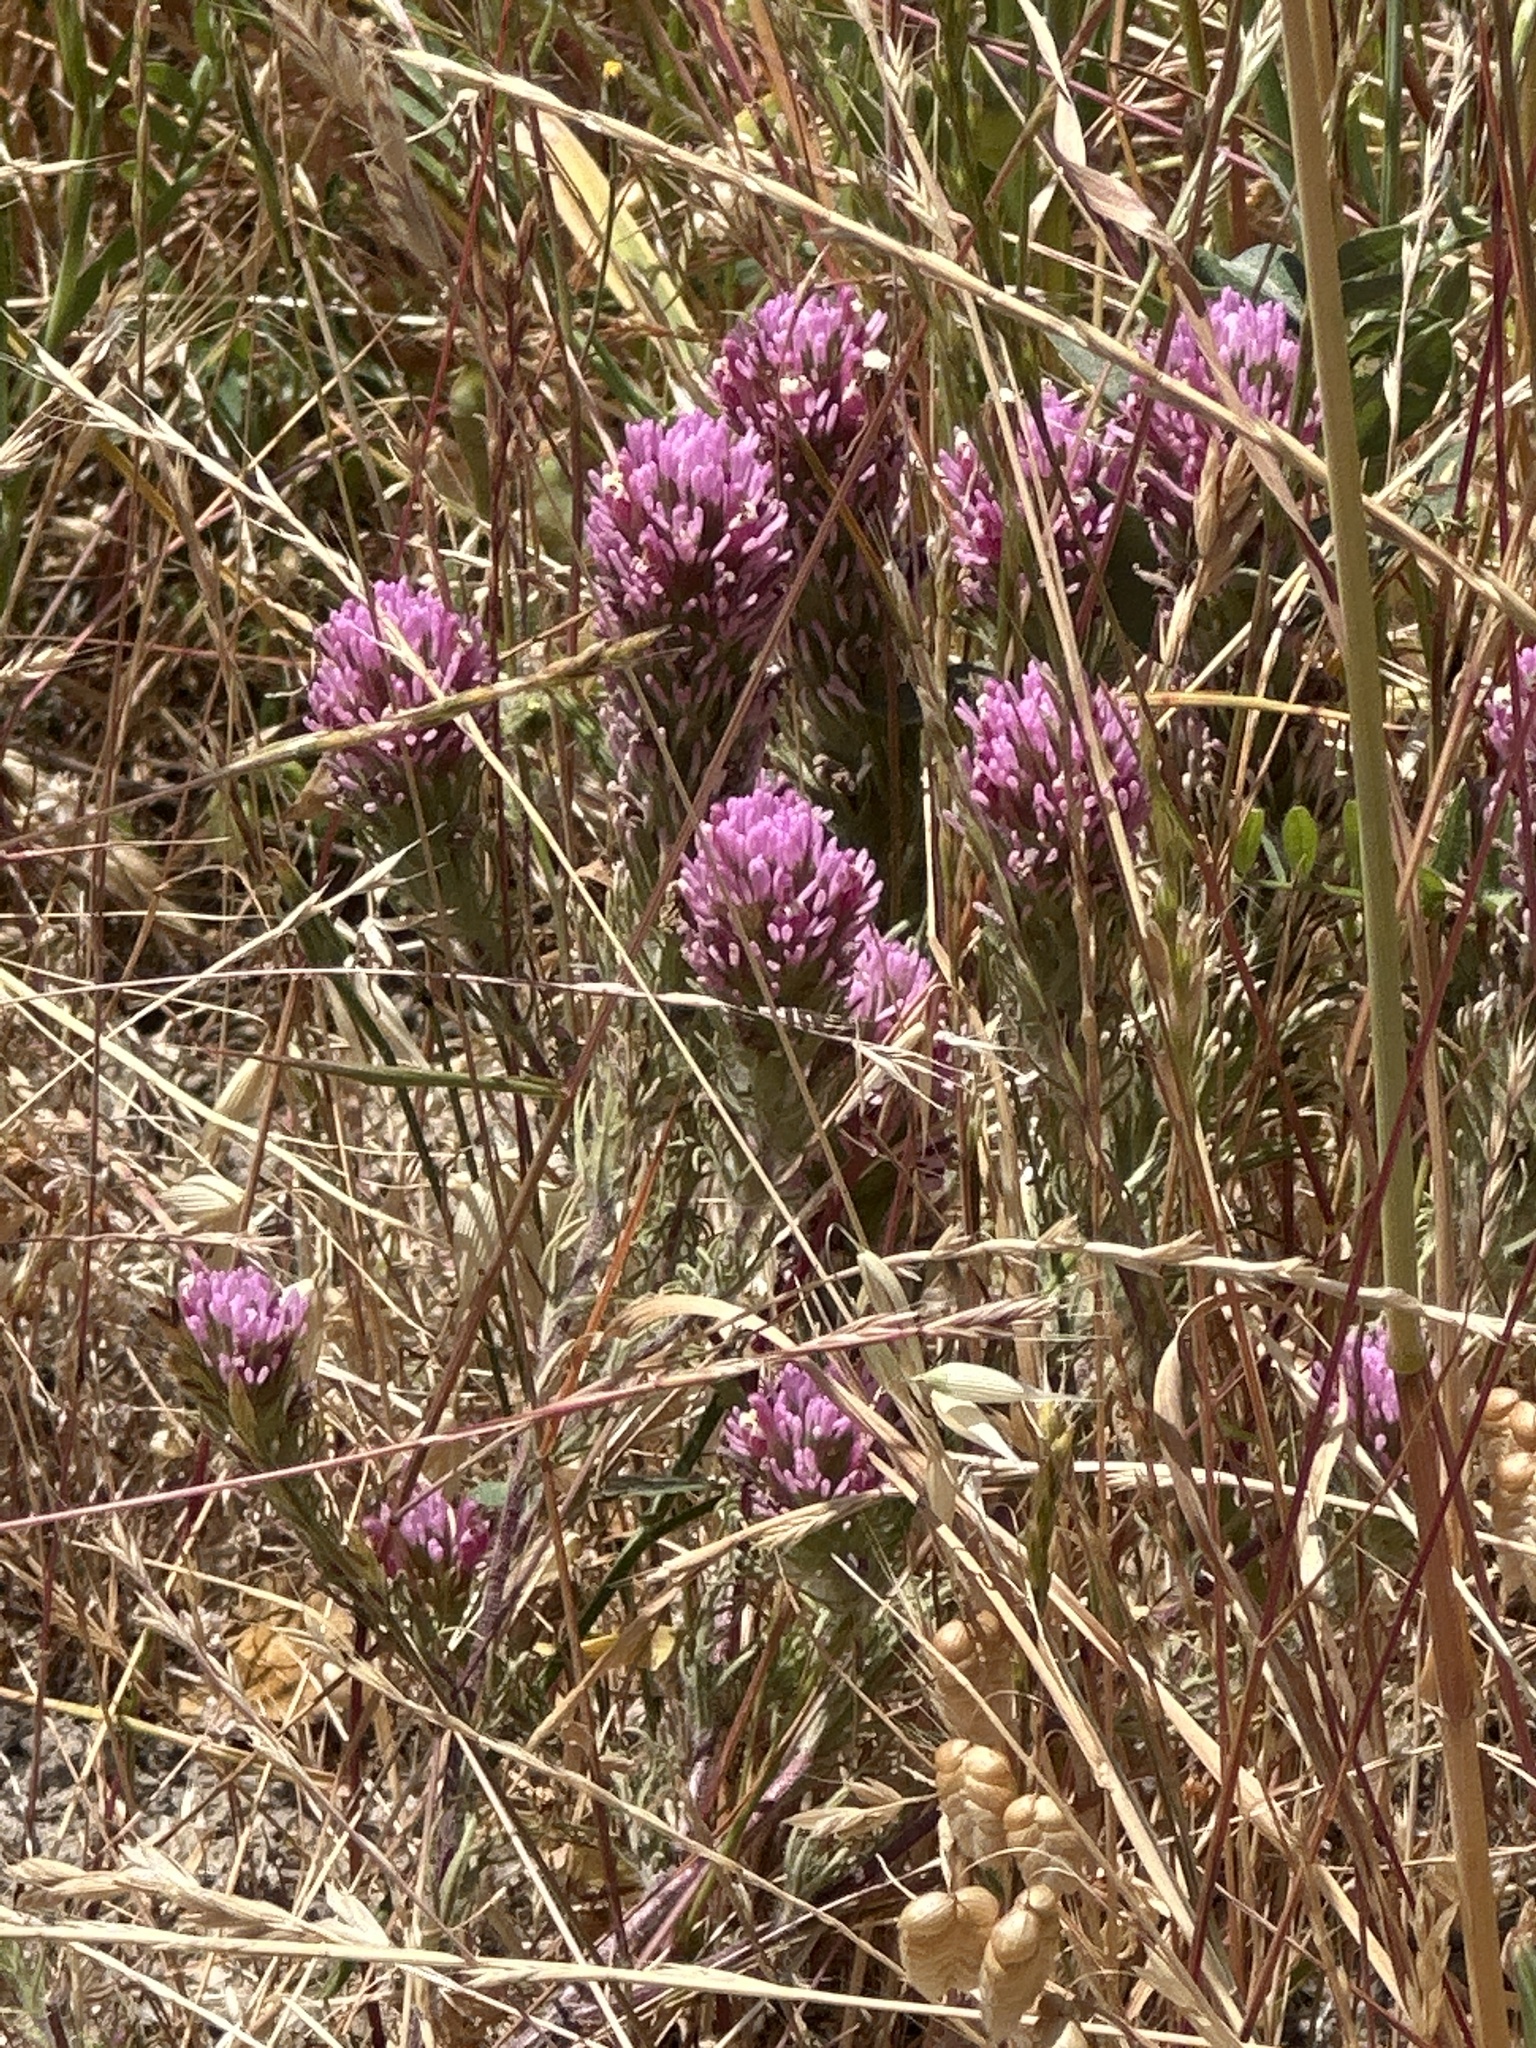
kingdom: Plantae
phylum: Tracheophyta
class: Magnoliopsida
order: Lamiales
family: Orobanchaceae
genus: Castilleja
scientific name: Castilleja exserta
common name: Purple owl-clover
